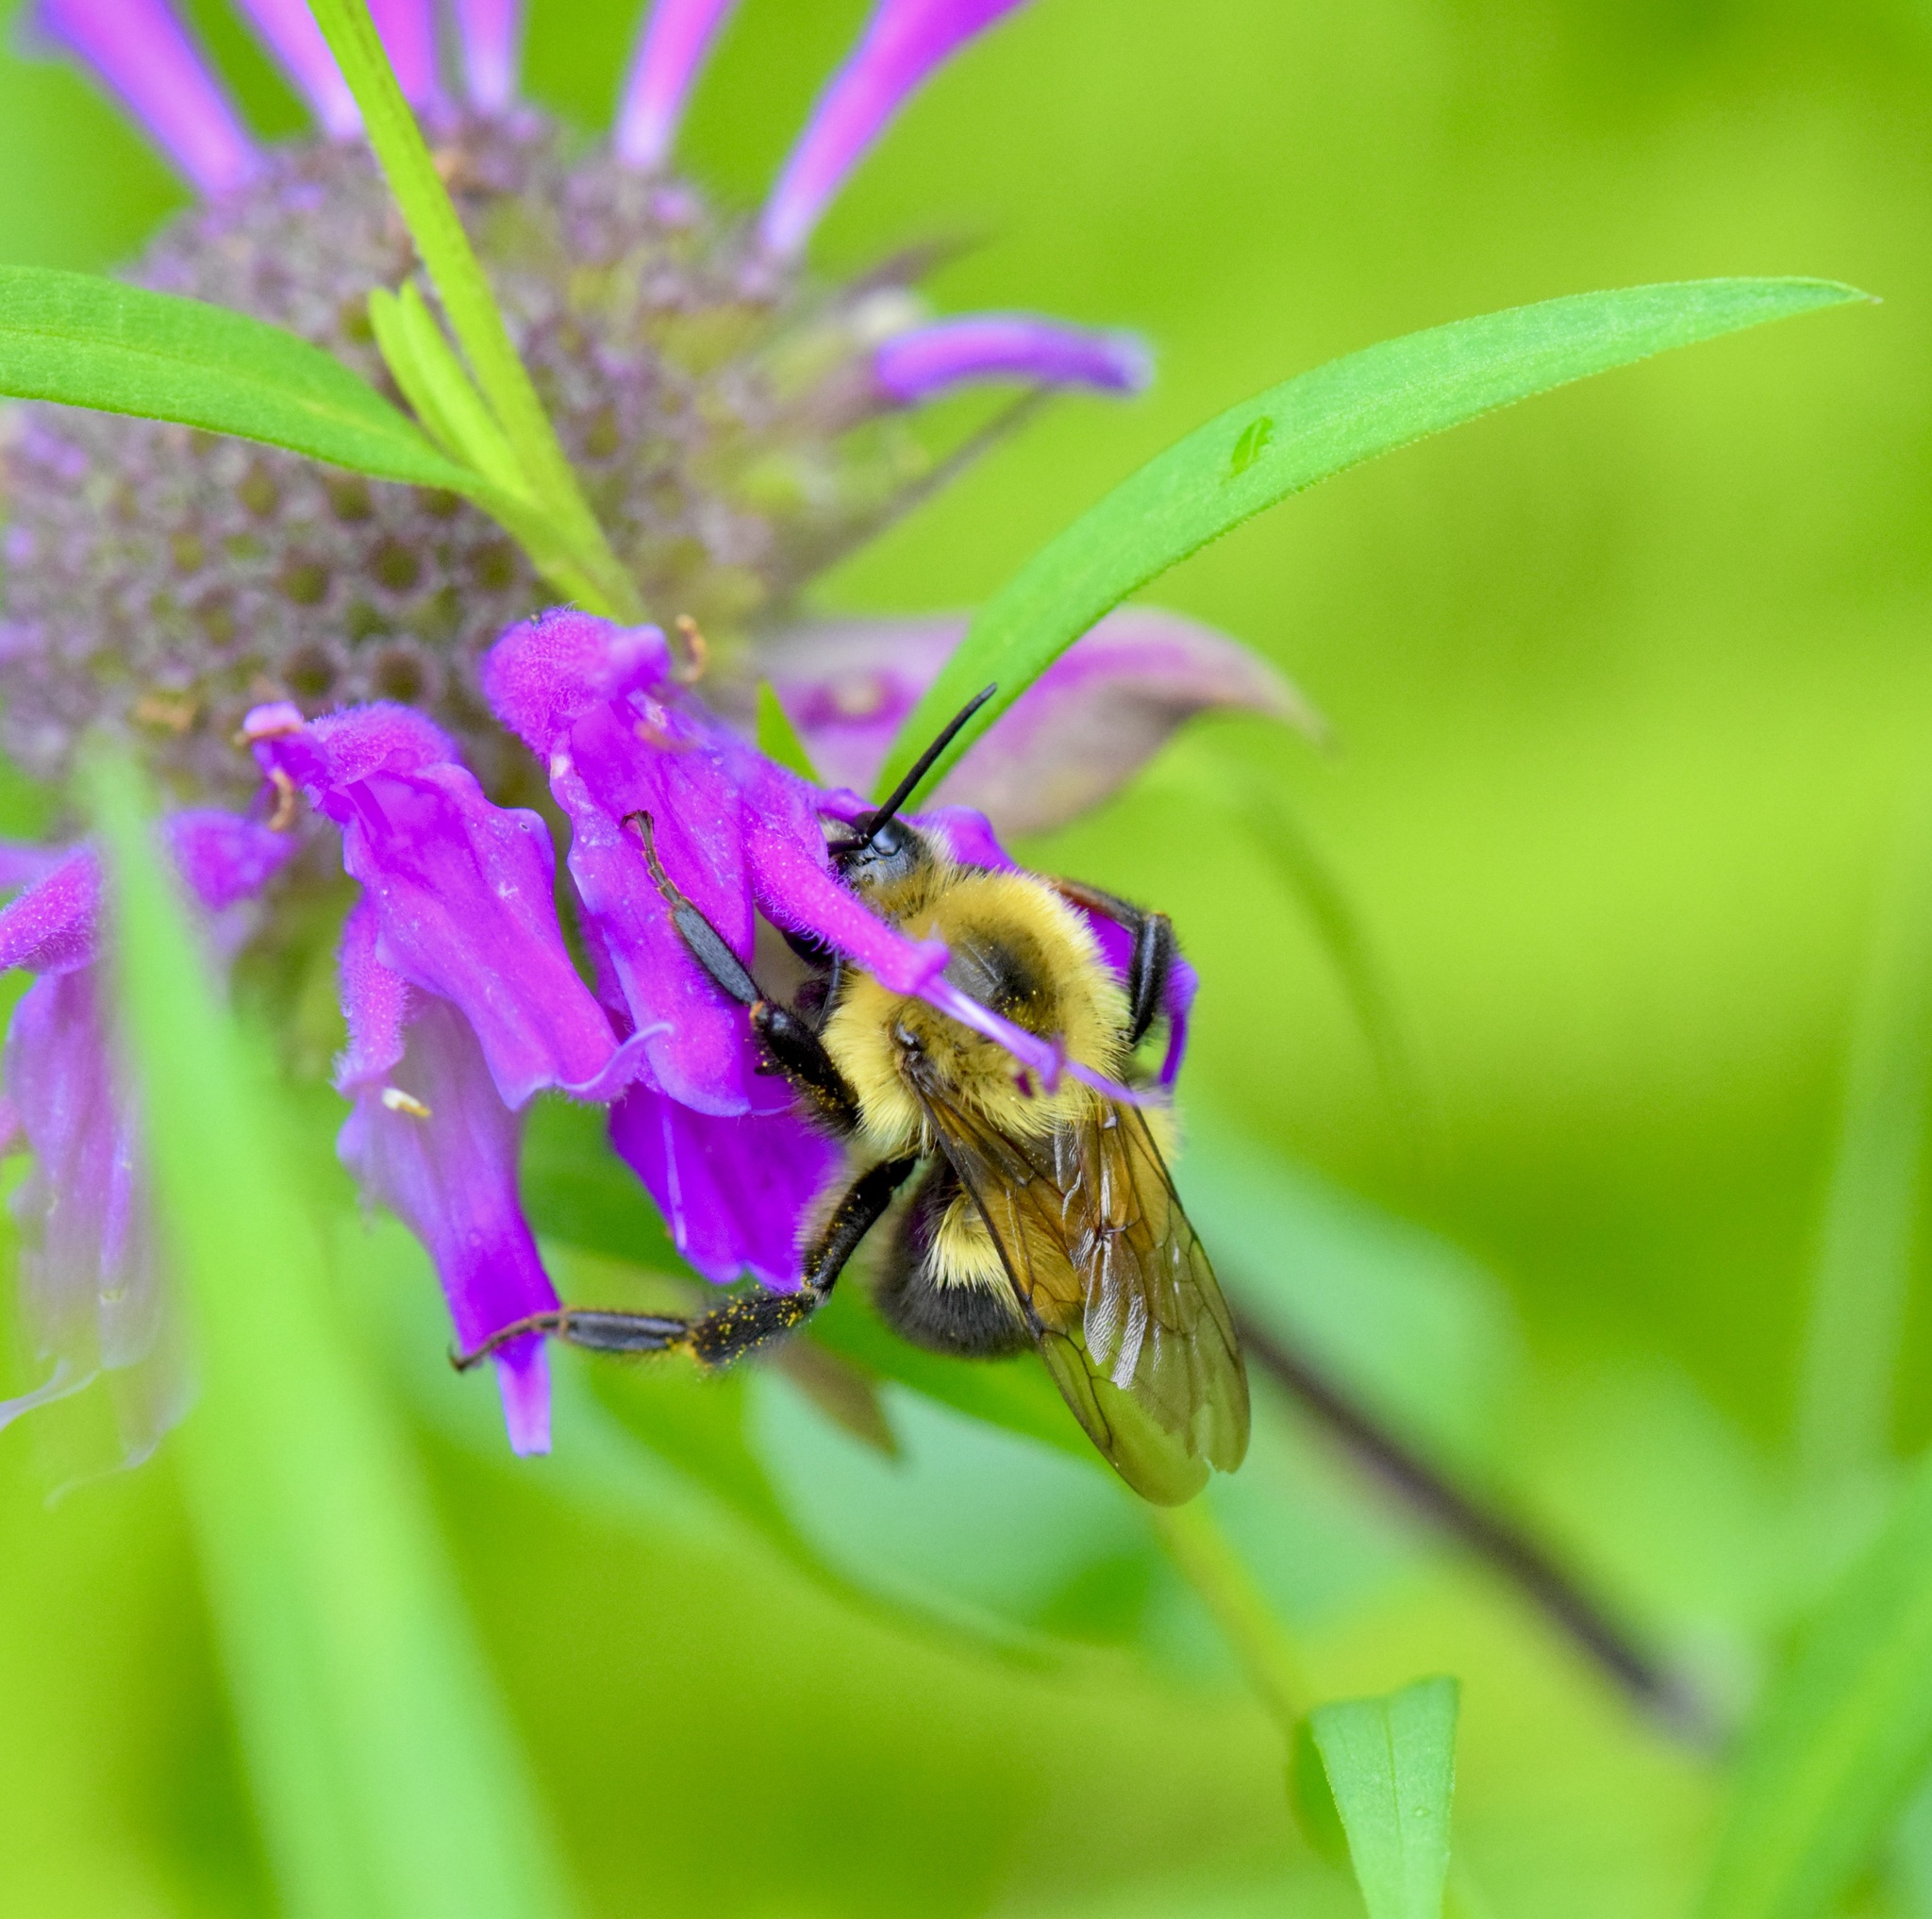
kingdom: Animalia
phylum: Arthropoda
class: Insecta
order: Hymenoptera
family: Apidae
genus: Bombus
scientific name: Bombus bimaculatus
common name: Two-spotted bumble bee
